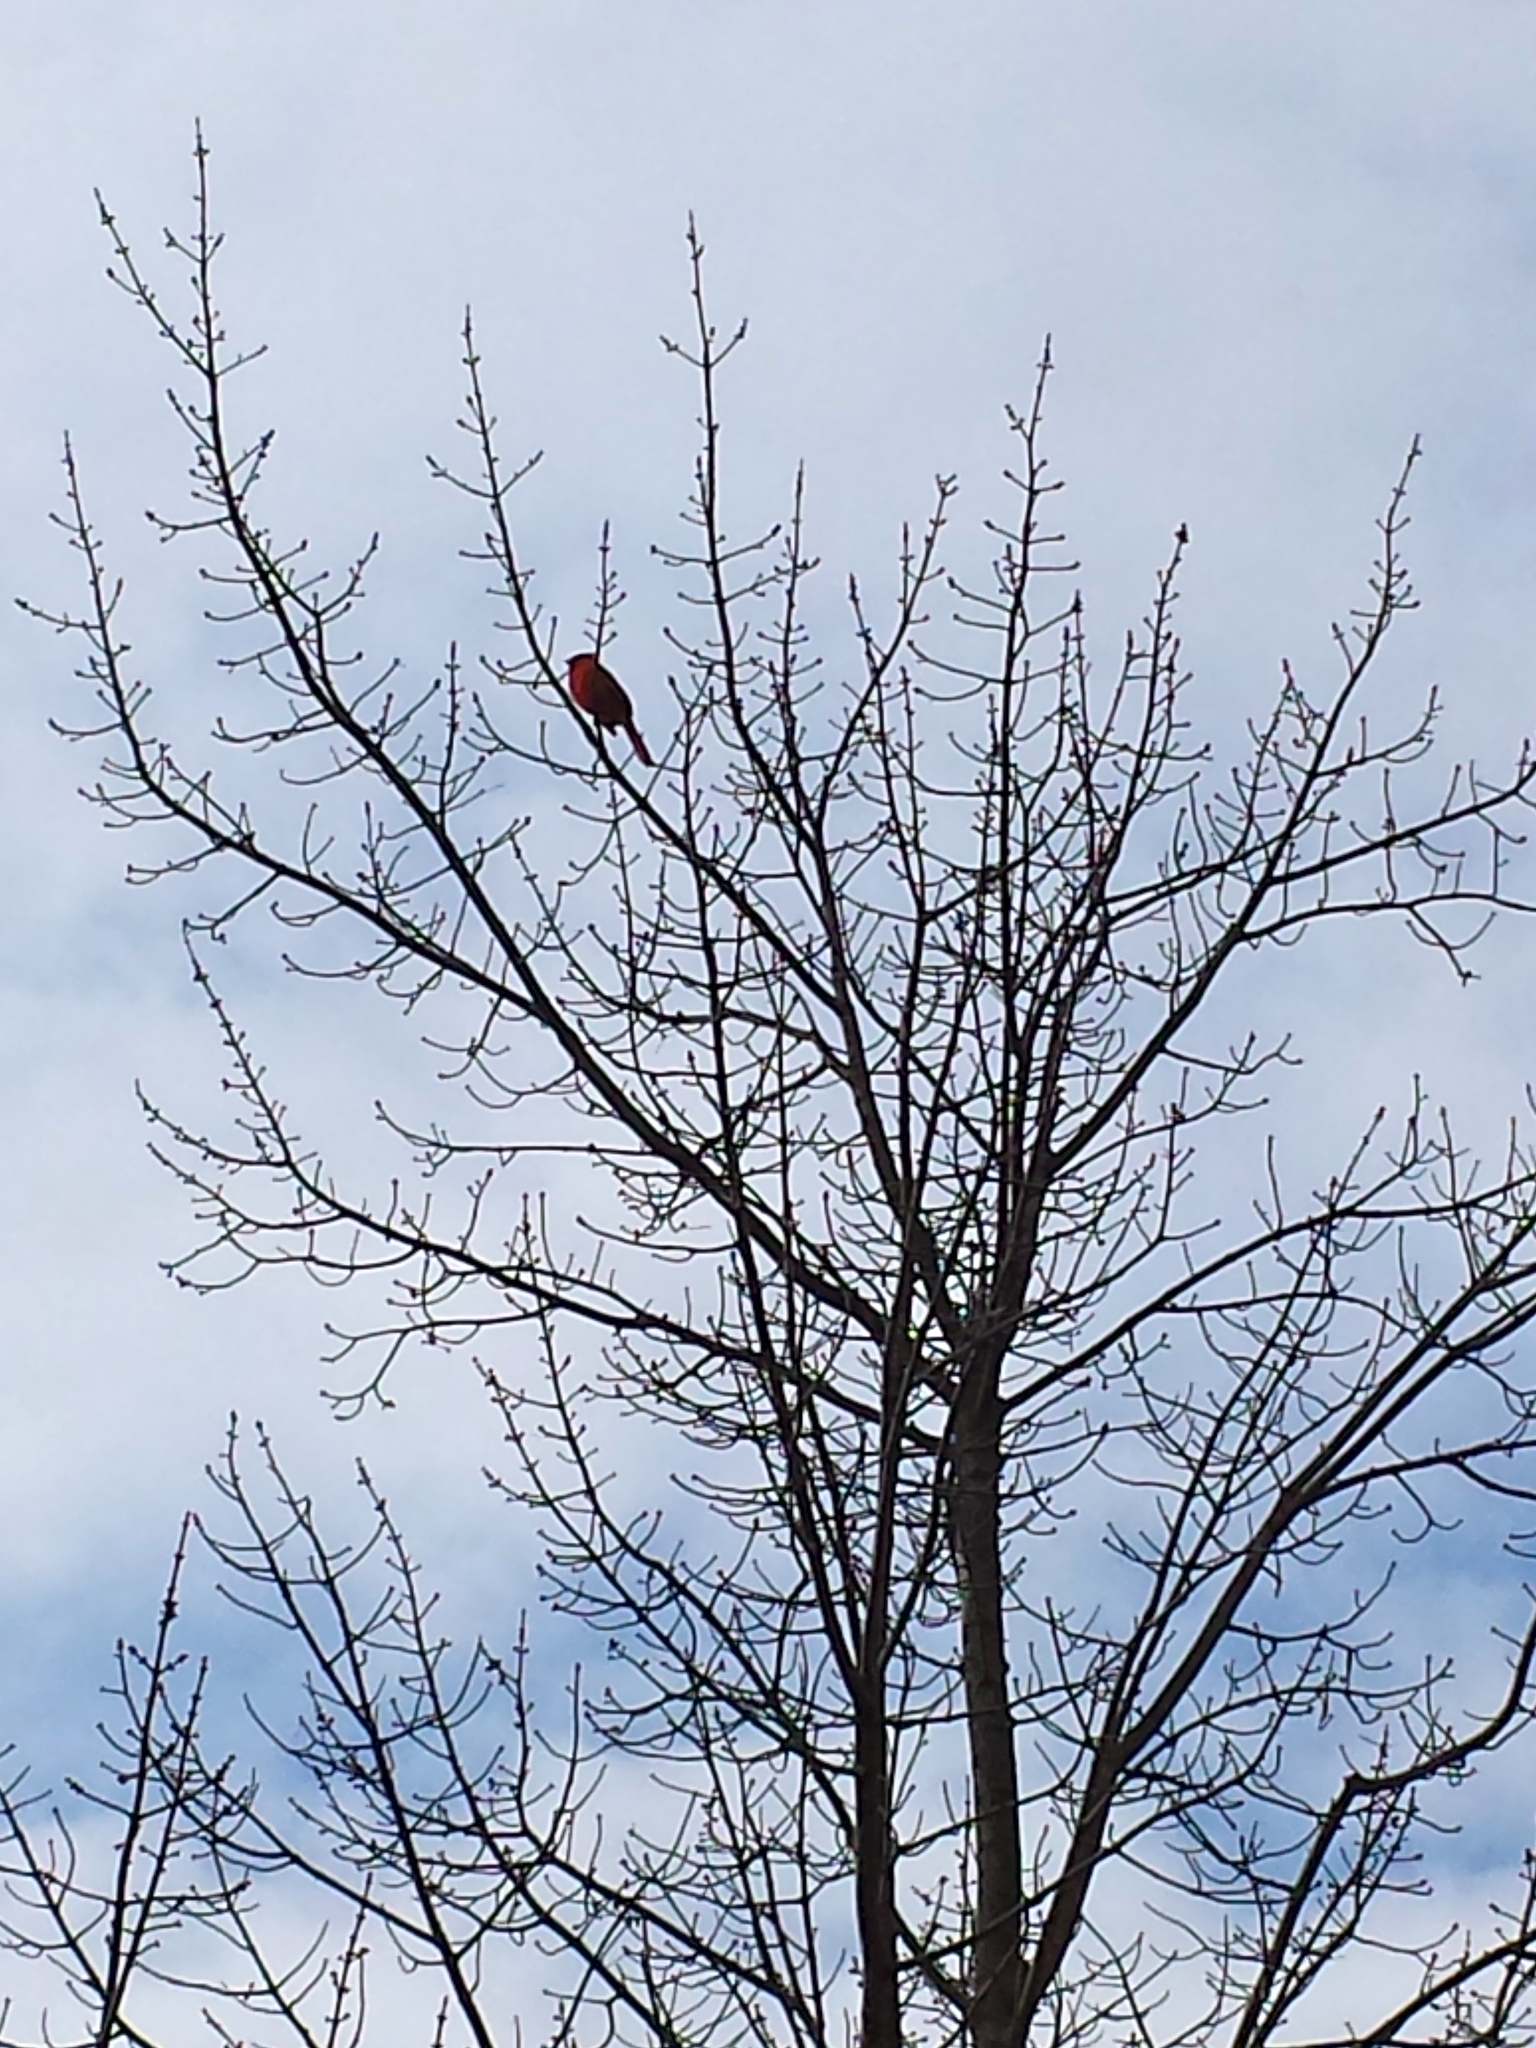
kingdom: Animalia
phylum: Chordata
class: Aves
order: Passeriformes
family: Cardinalidae
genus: Cardinalis
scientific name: Cardinalis cardinalis
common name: Northern cardinal
